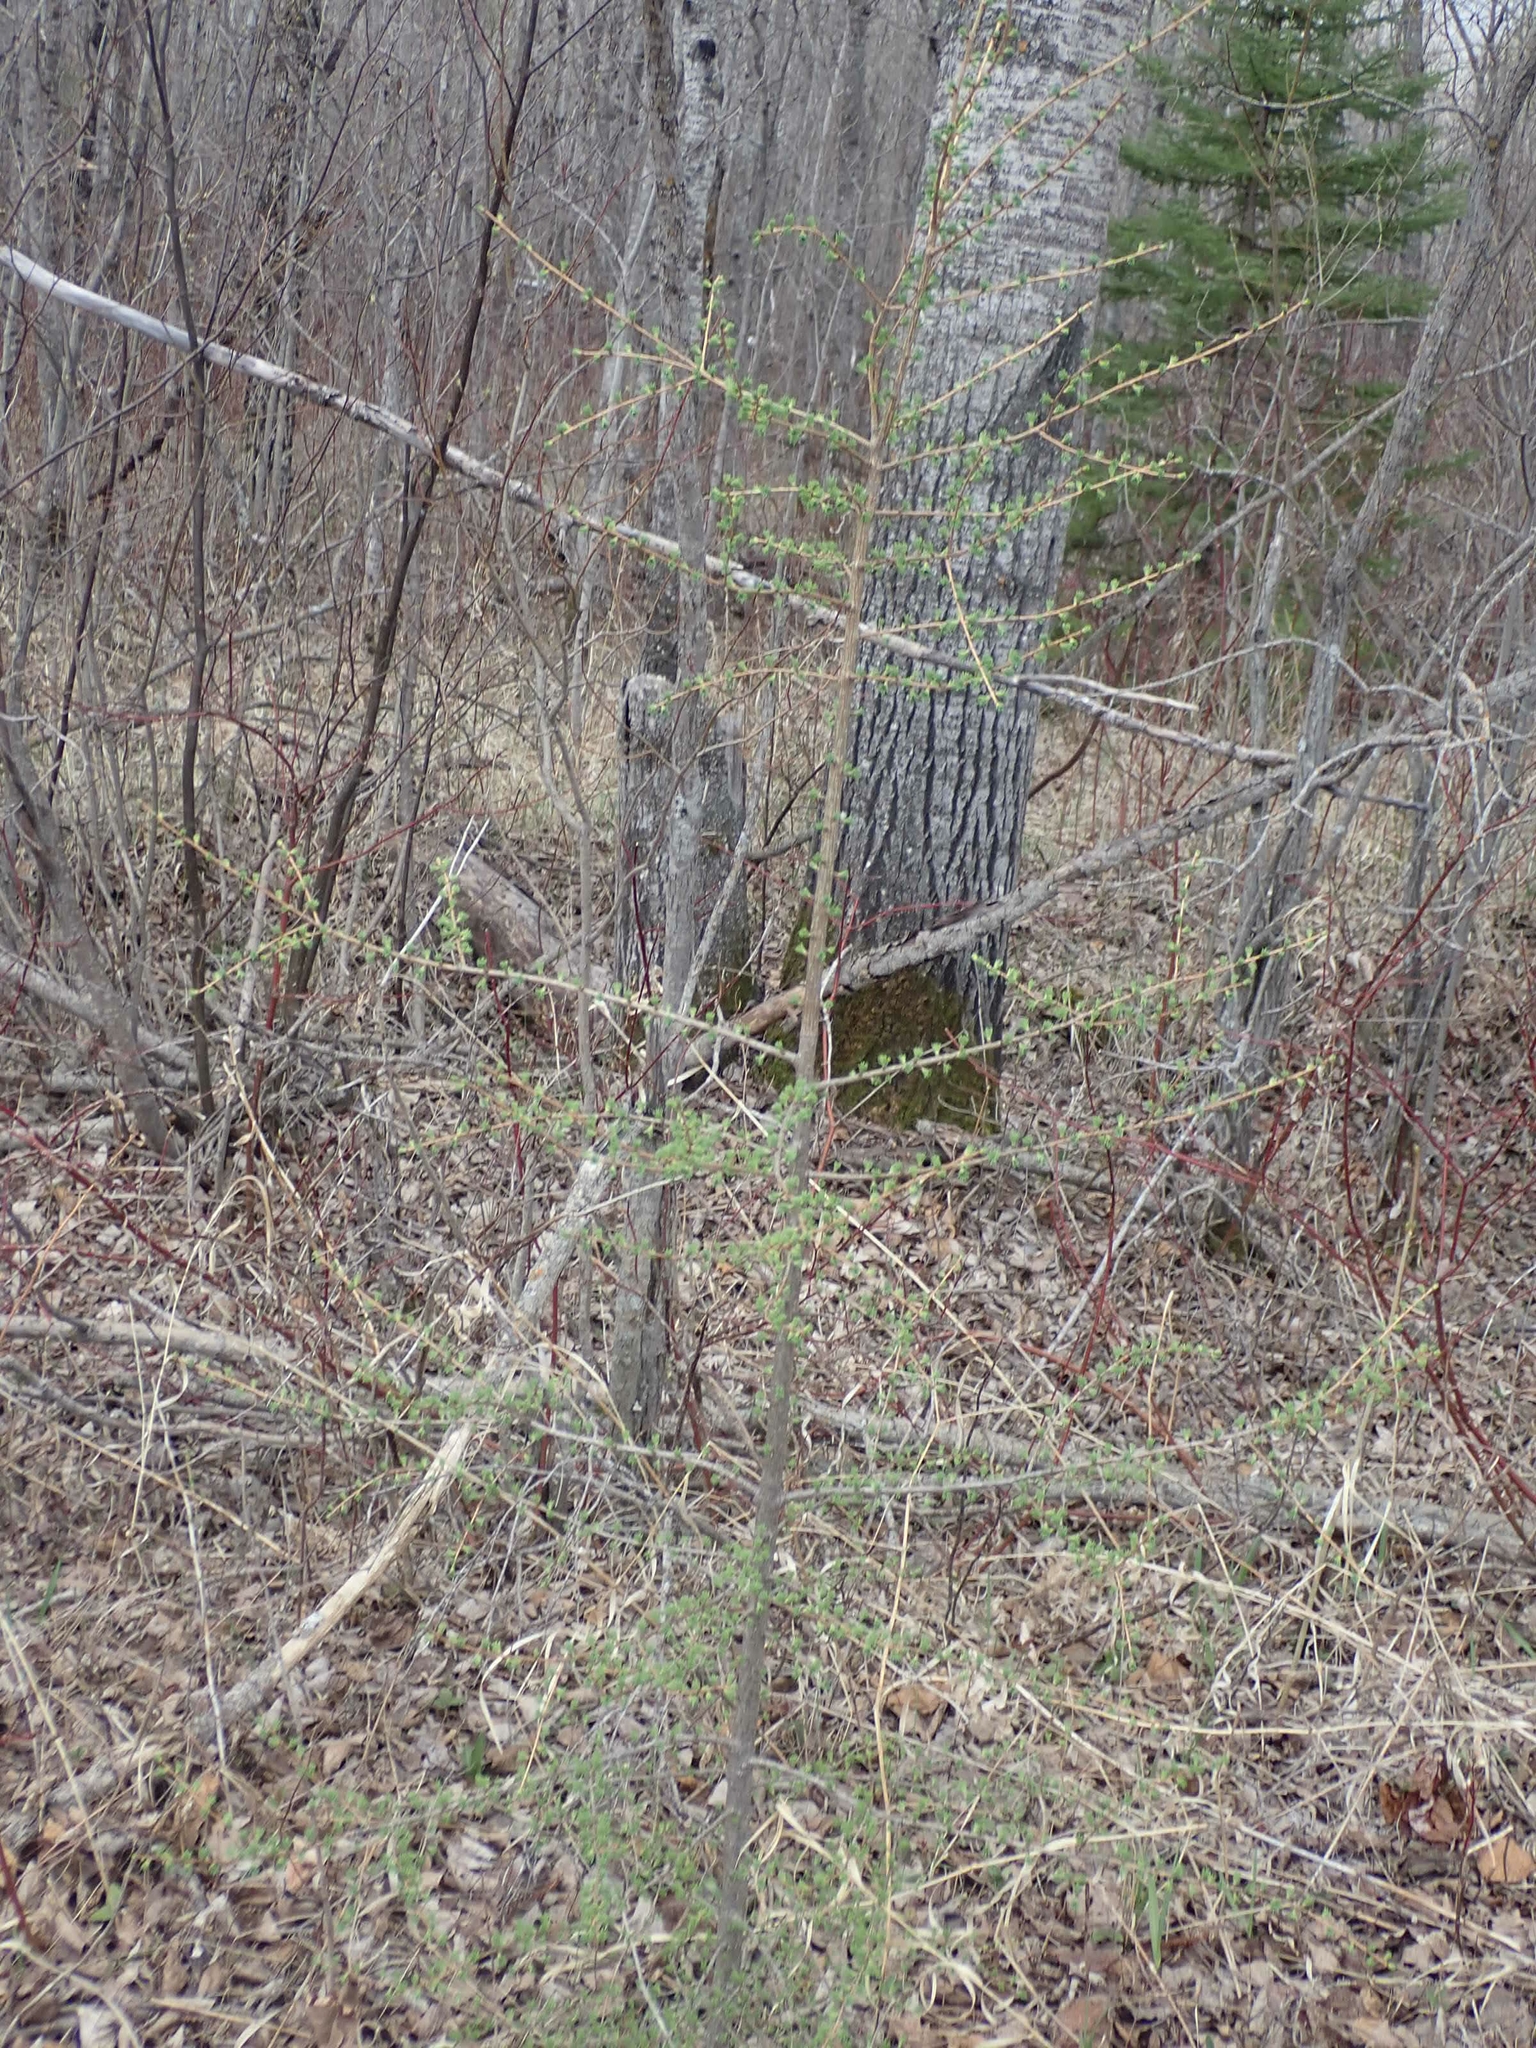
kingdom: Plantae
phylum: Tracheophyta
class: Pinopsida
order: Pinales
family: Pinaceae
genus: Larix
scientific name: Larix laricina
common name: American larch
